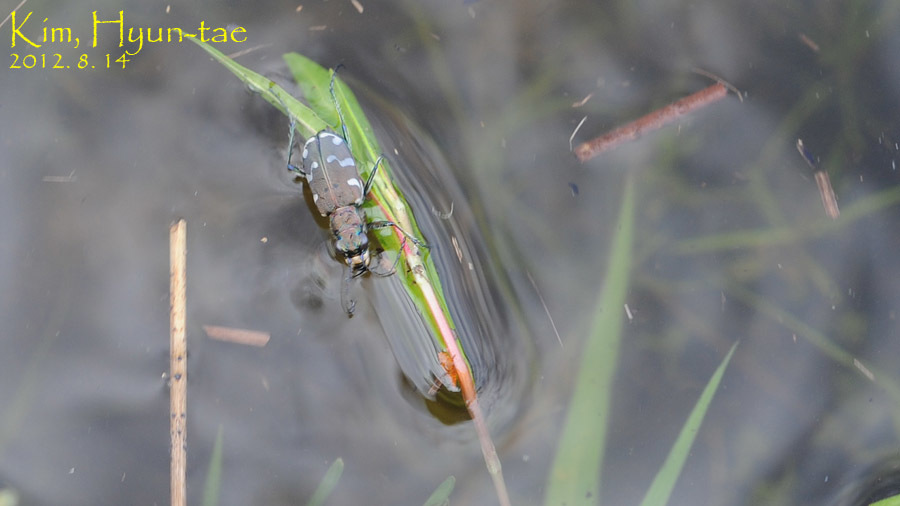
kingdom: Animalia
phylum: Arthropoda
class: Insecta
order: Coleoptera
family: Carabidae
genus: Cicindela
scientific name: Cicindela transbaicalica
